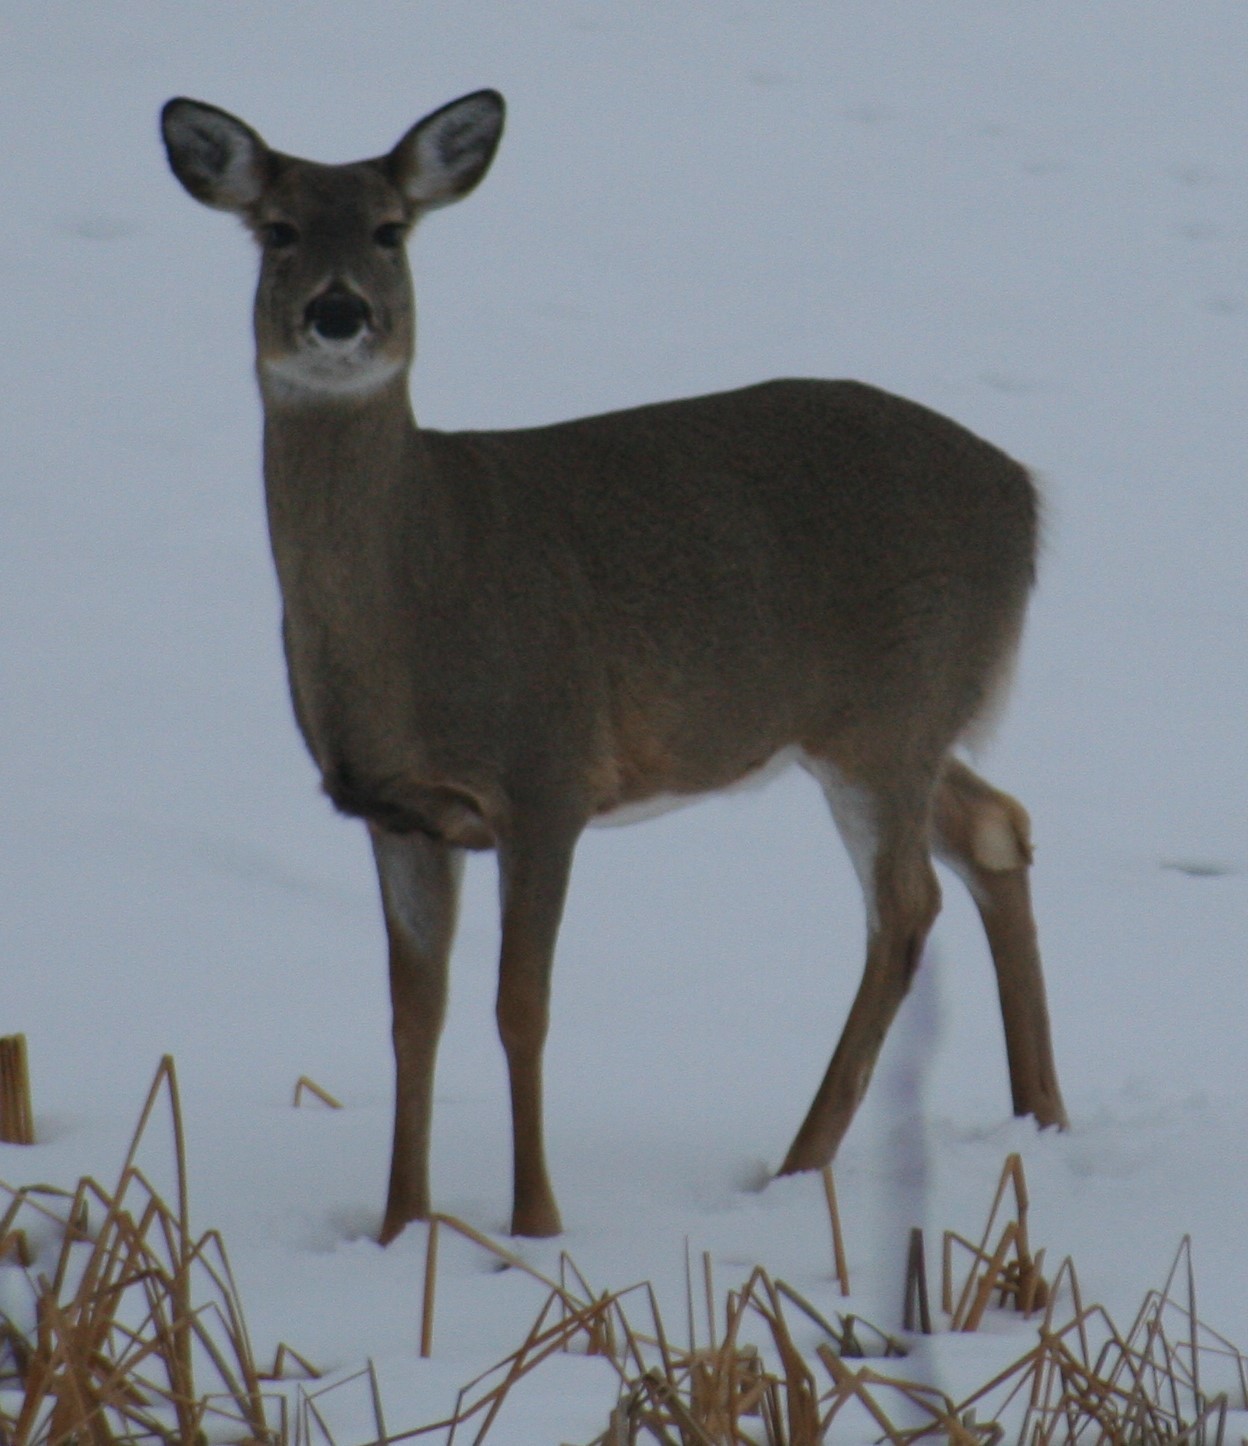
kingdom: Animalia
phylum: Chordata
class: Mammalia
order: Artiodactyla
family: Cervidae
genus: Odocoileus
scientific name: Odocoileus virginianus
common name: White-tailed deer
